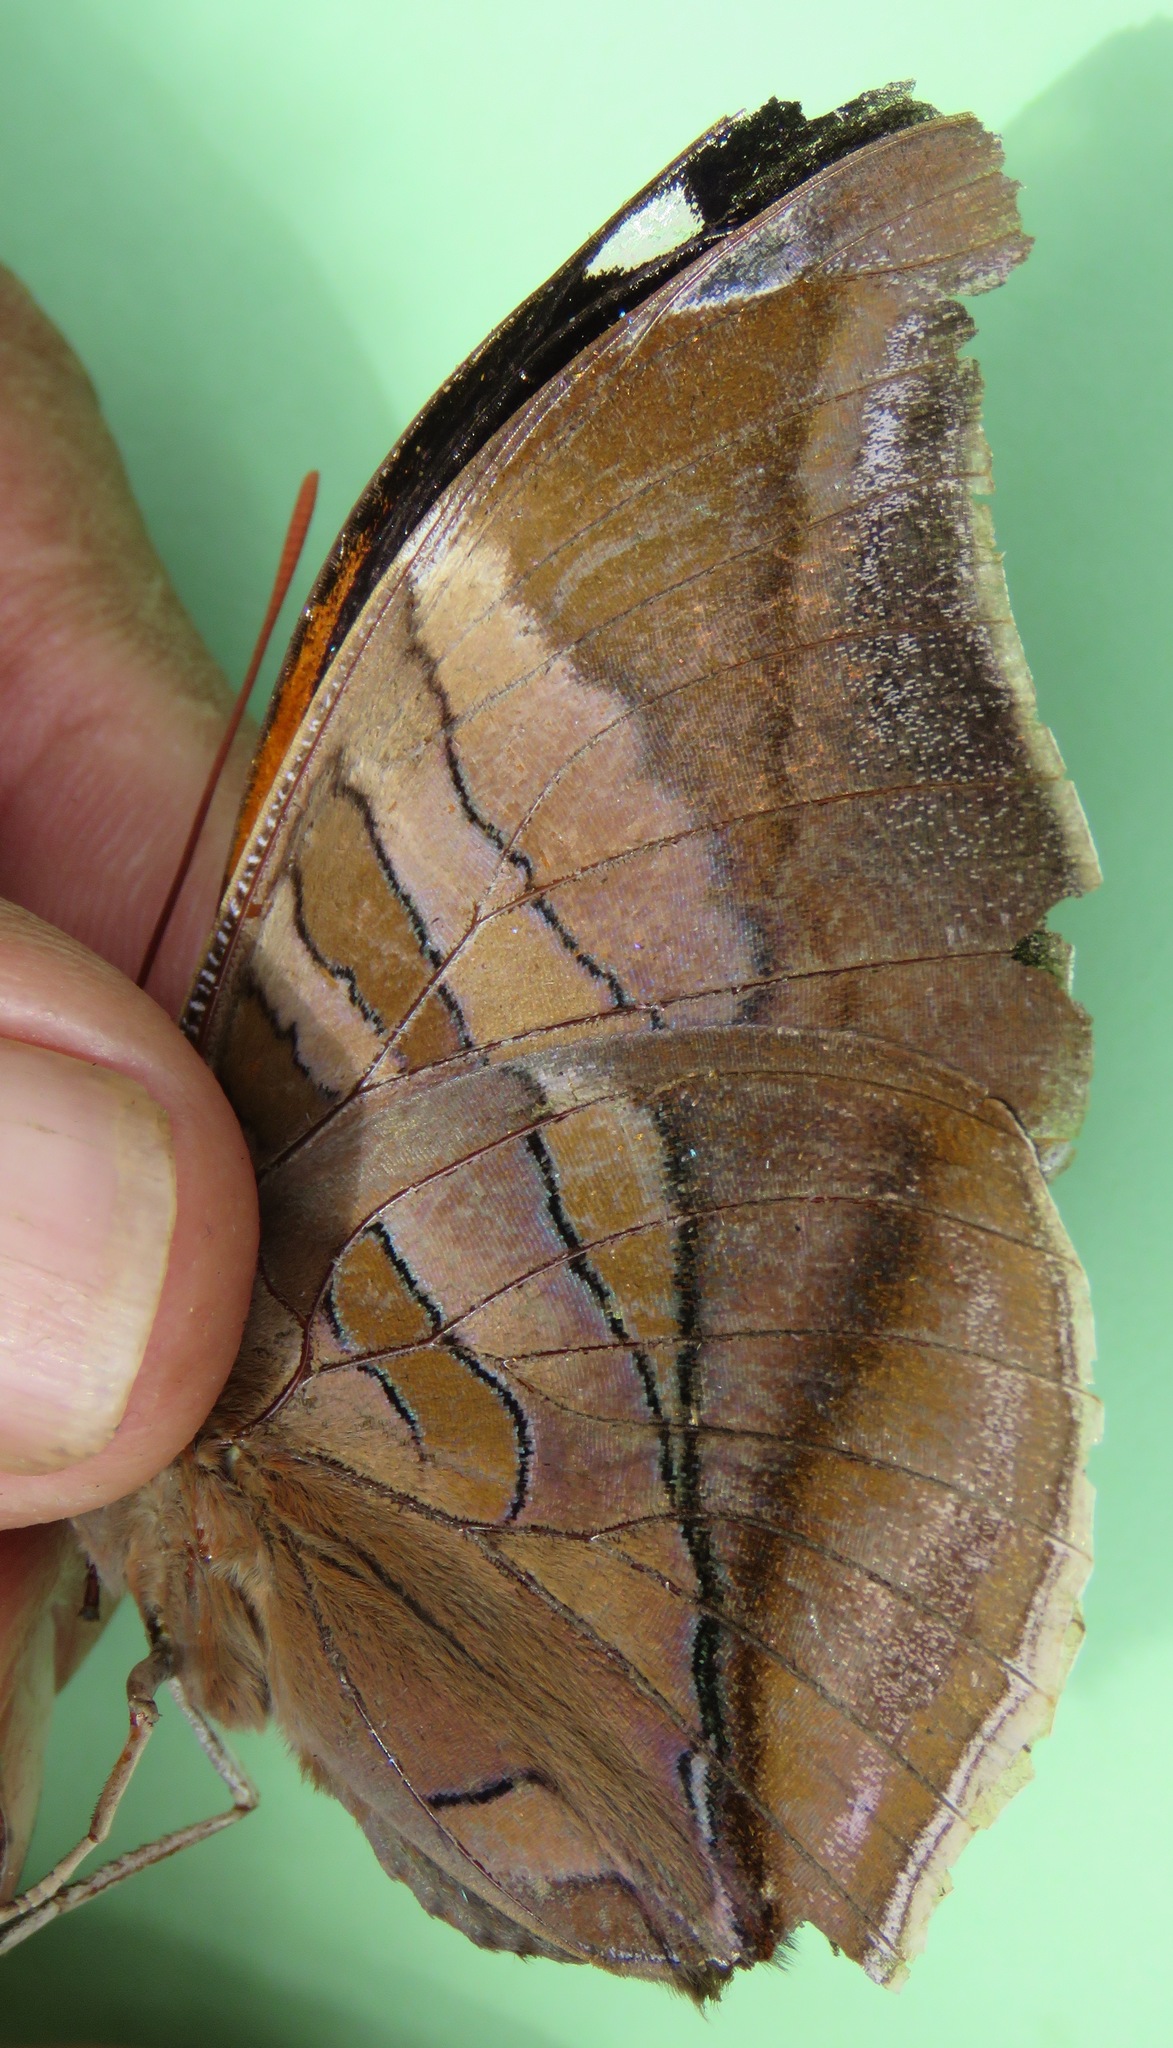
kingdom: Animalia
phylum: Arthropoda
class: Insecta
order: Lepidoptera
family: Nymphalidae
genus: Historis
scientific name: Historis odius
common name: Orion cecropian
